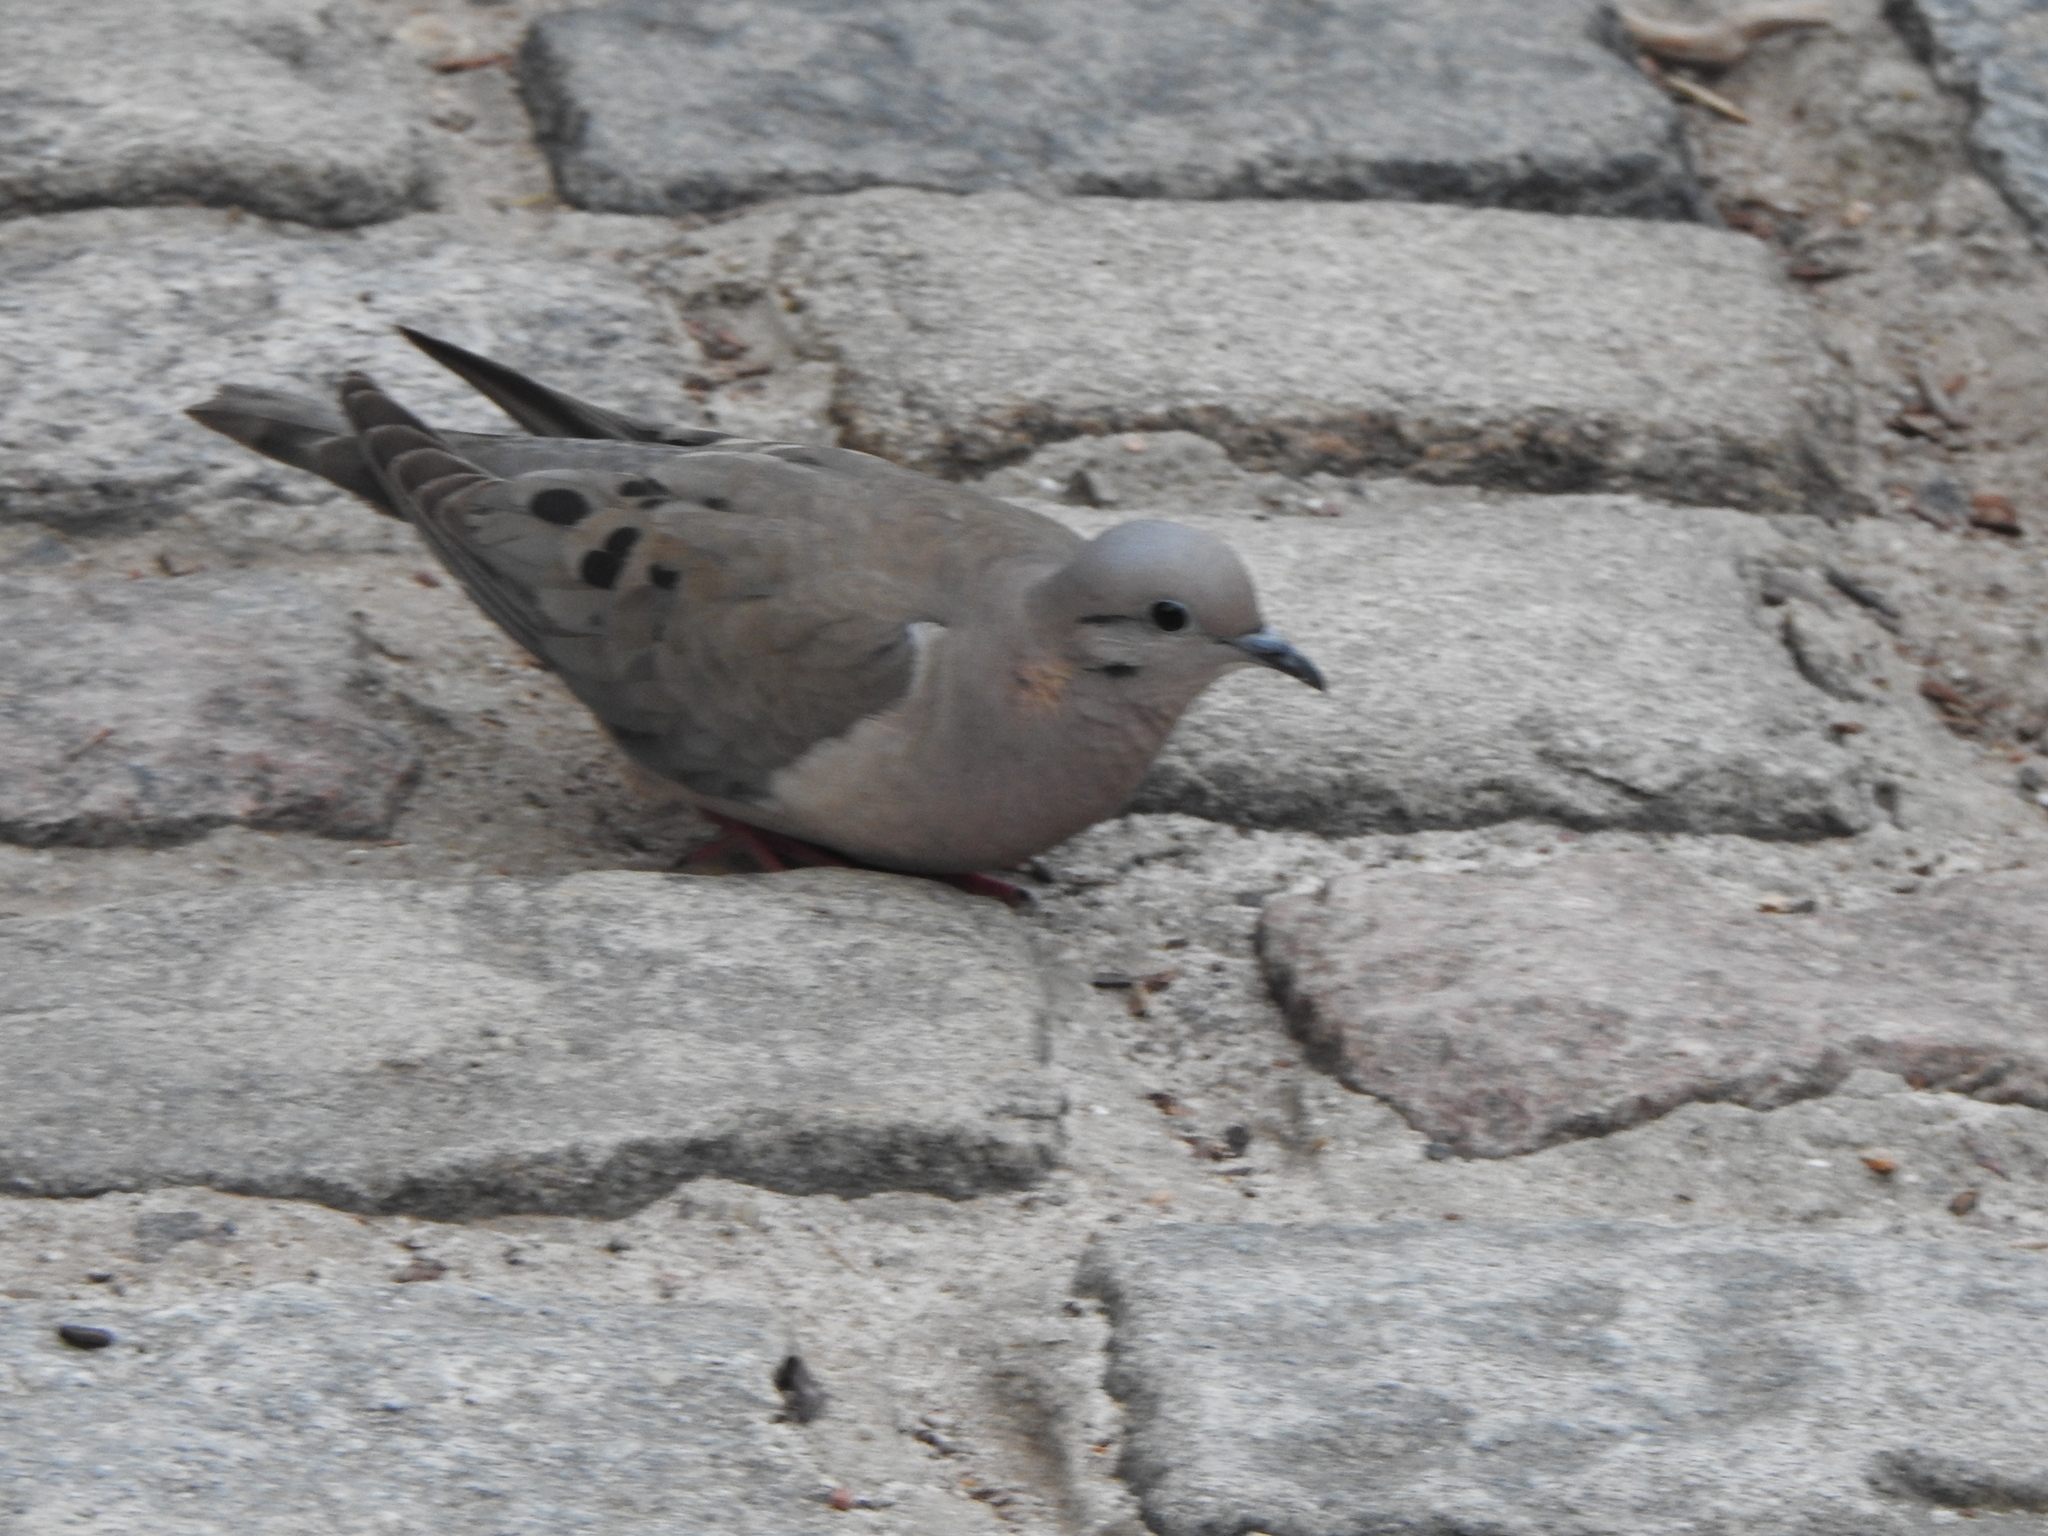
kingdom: Animalia
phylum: Chordata
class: Aves
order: Columbiformes
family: Columbidae
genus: Zenaida
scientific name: Zenaida auriculata
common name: Eared dove
